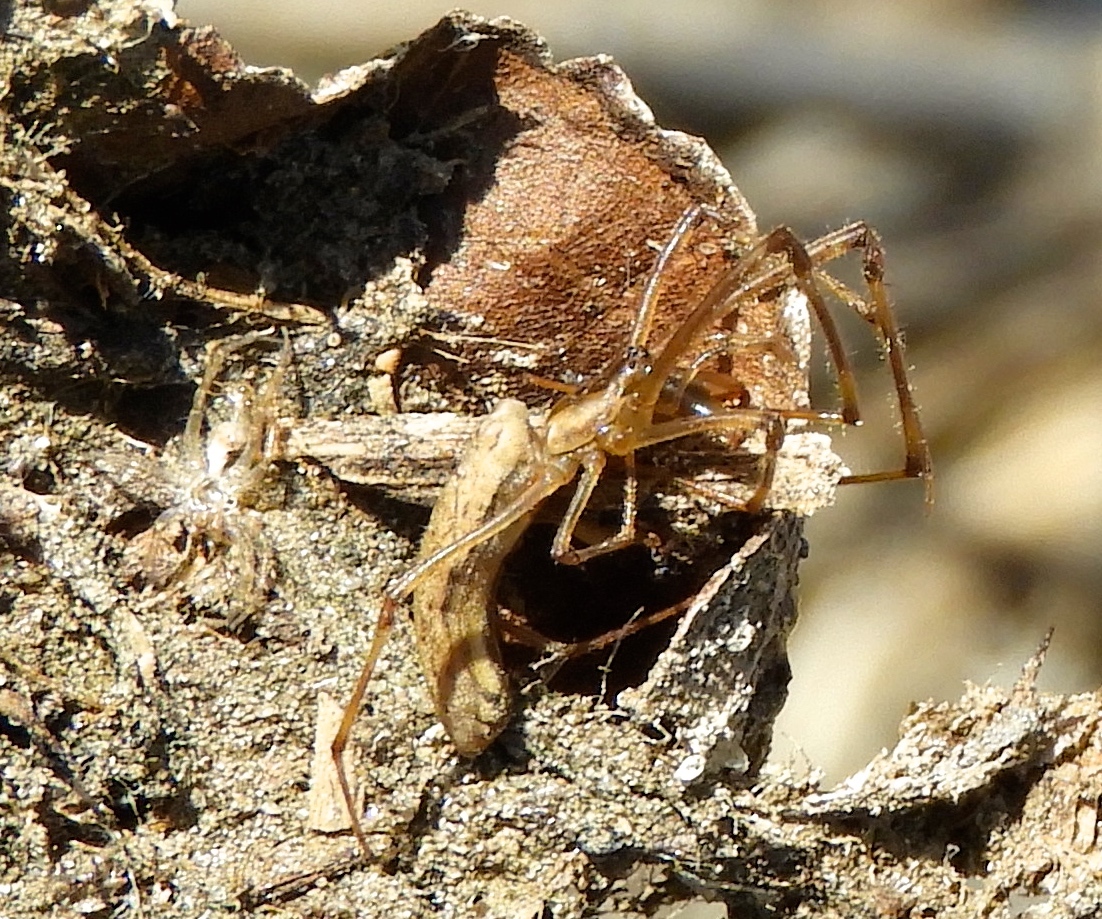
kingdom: Animalia
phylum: Arthropoda
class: Arachnida
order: Araneae
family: Tetragnathidae
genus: Tetragnatha
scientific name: Tetragnatha
